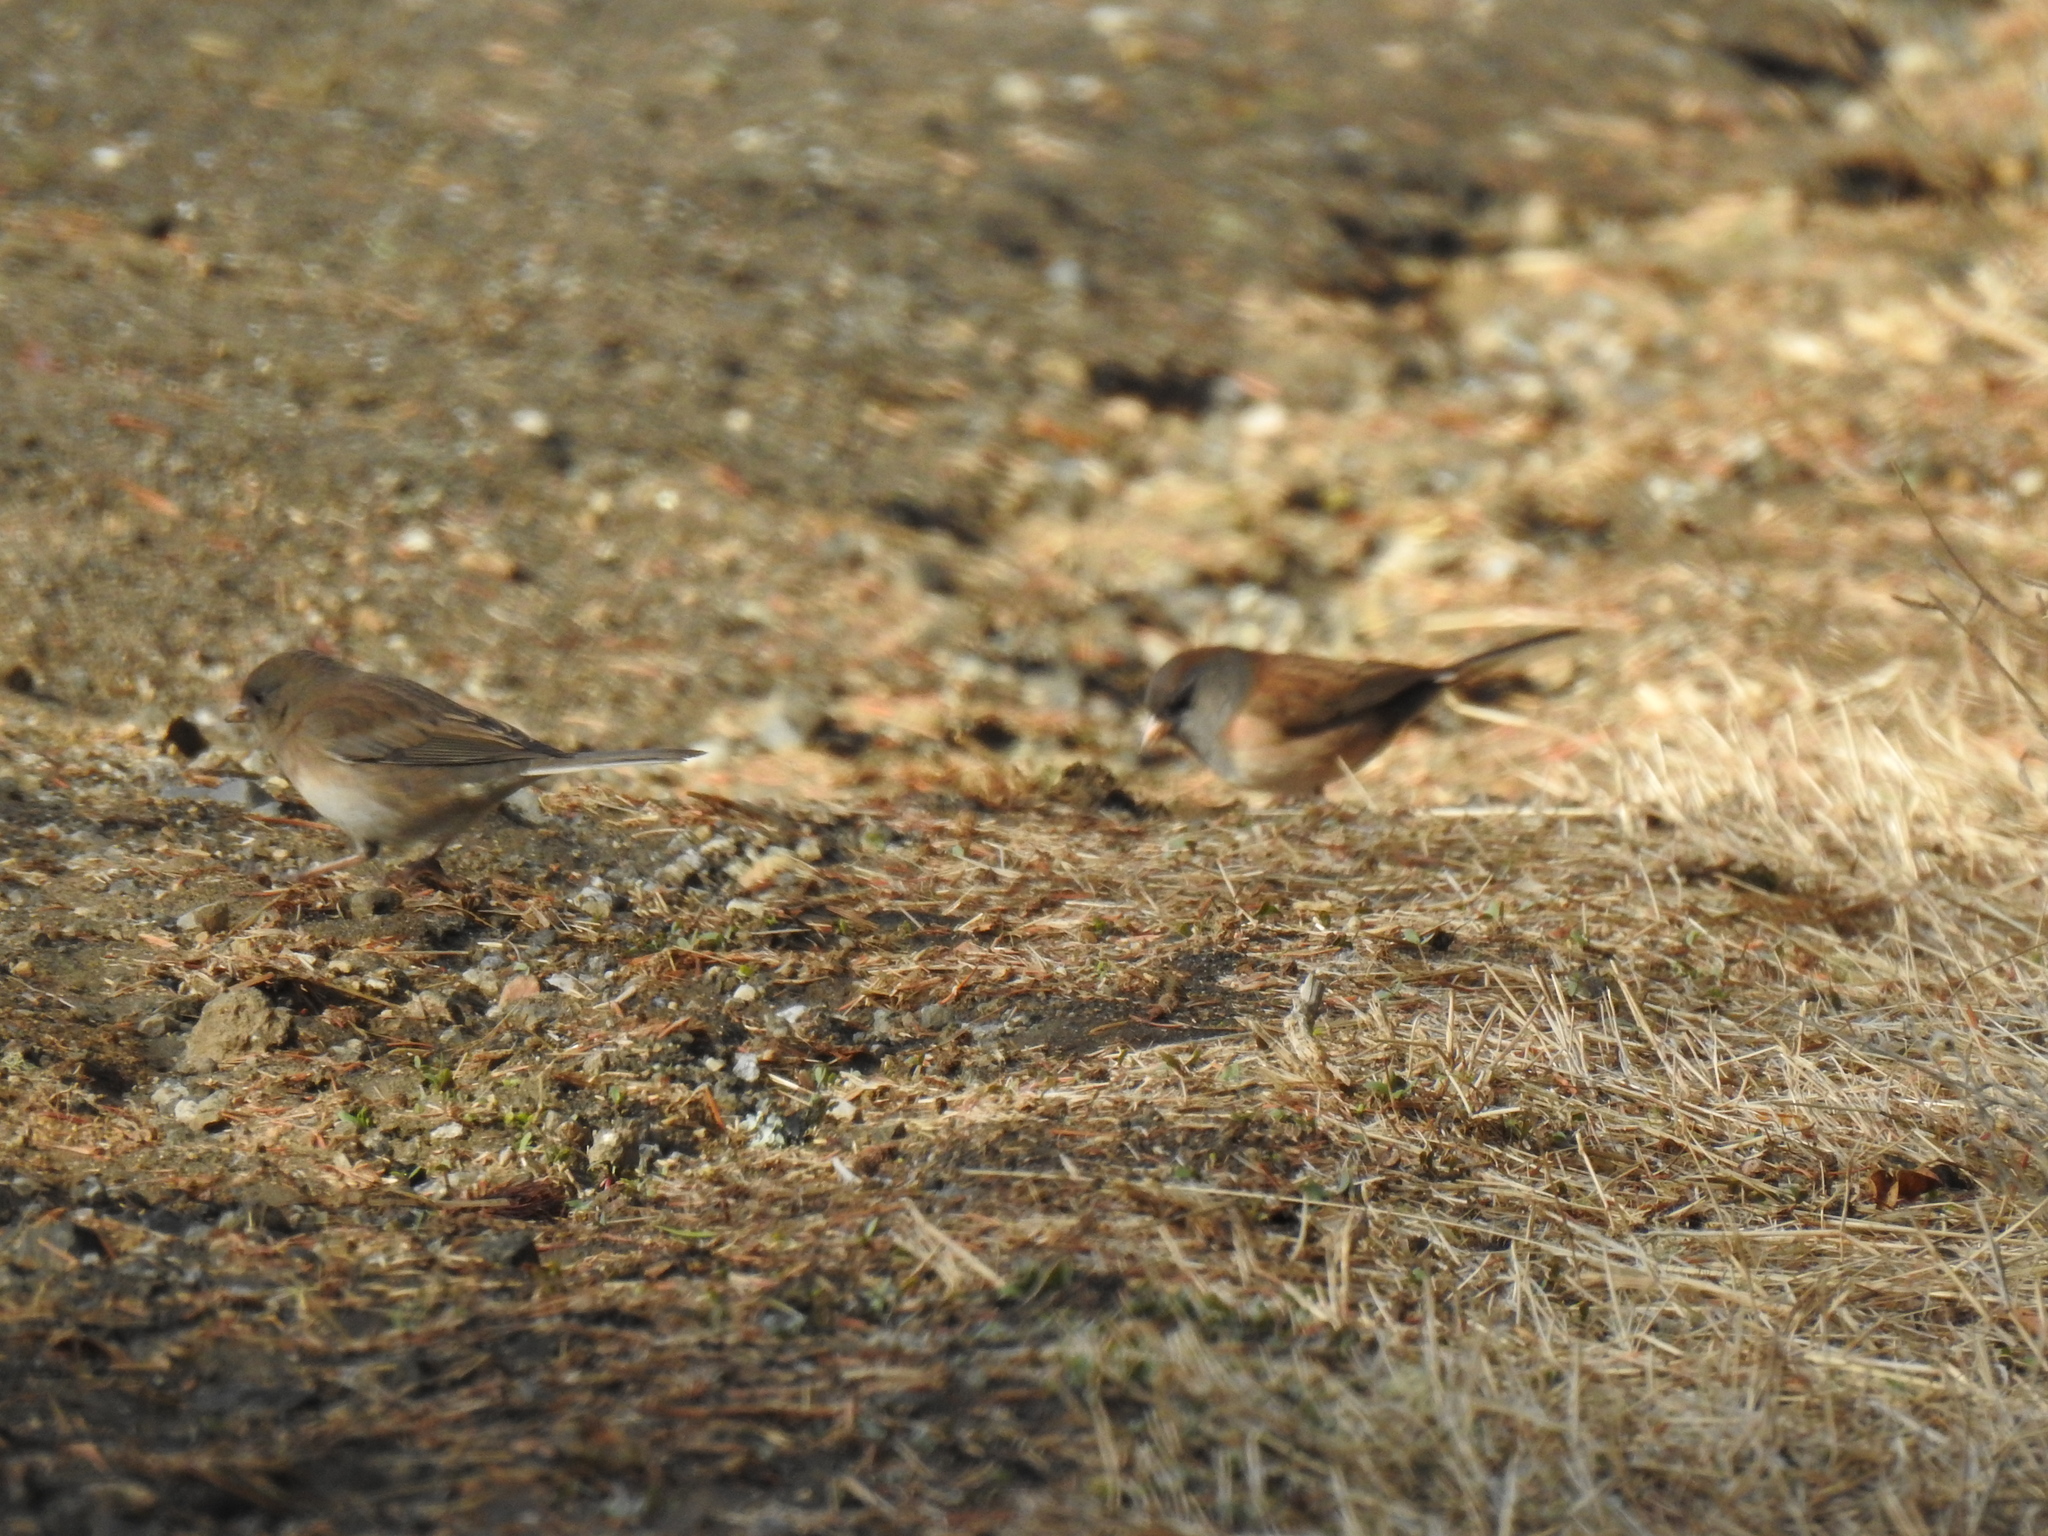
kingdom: Animalia
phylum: Chordata
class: Aves
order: Passeriformes
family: Passerellidae
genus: Junco
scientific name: Junco hyemalis
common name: Dark-eyed junco
